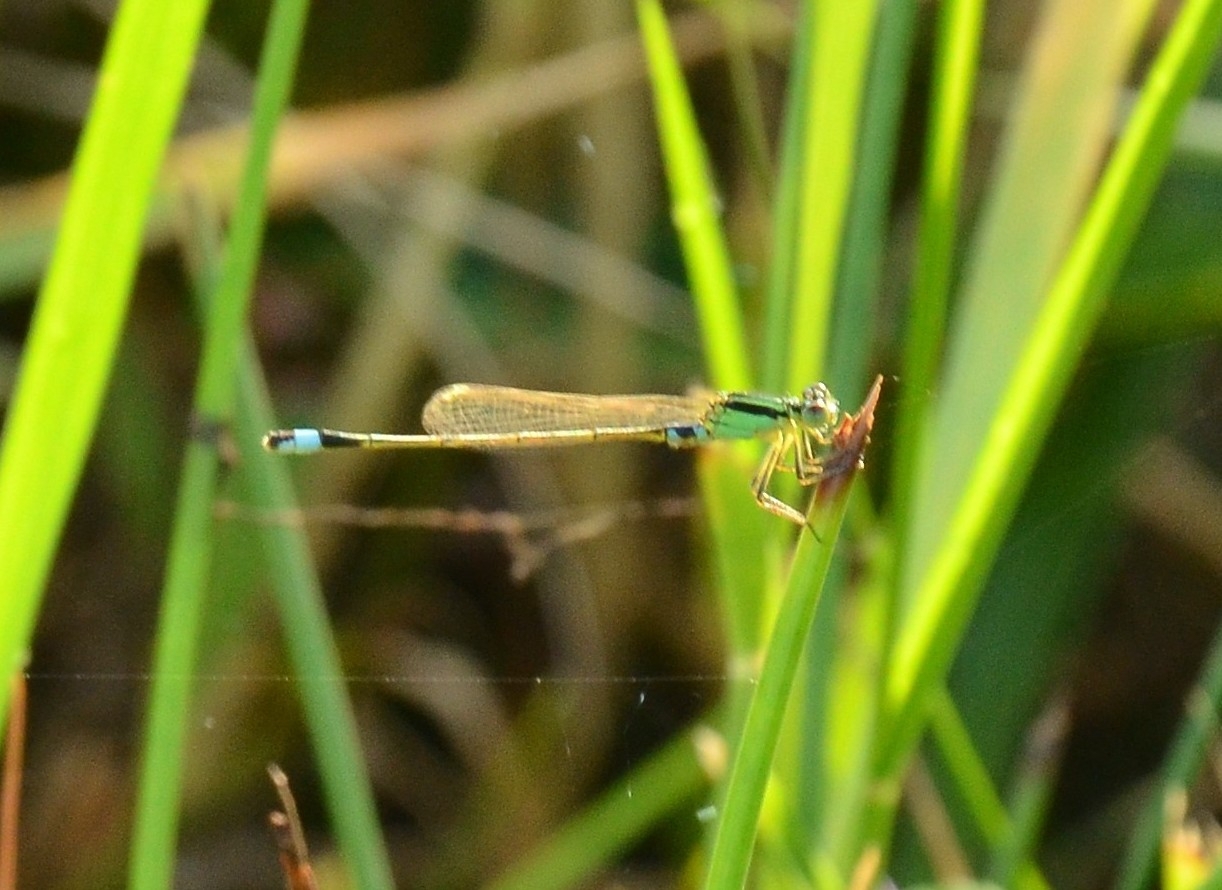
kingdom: Animalia
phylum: Arthropoda
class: Insecta
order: Odonata
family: Coenagrionidae
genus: Ischnura
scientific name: Ischnura senegalensis
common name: Tropical bluetail
